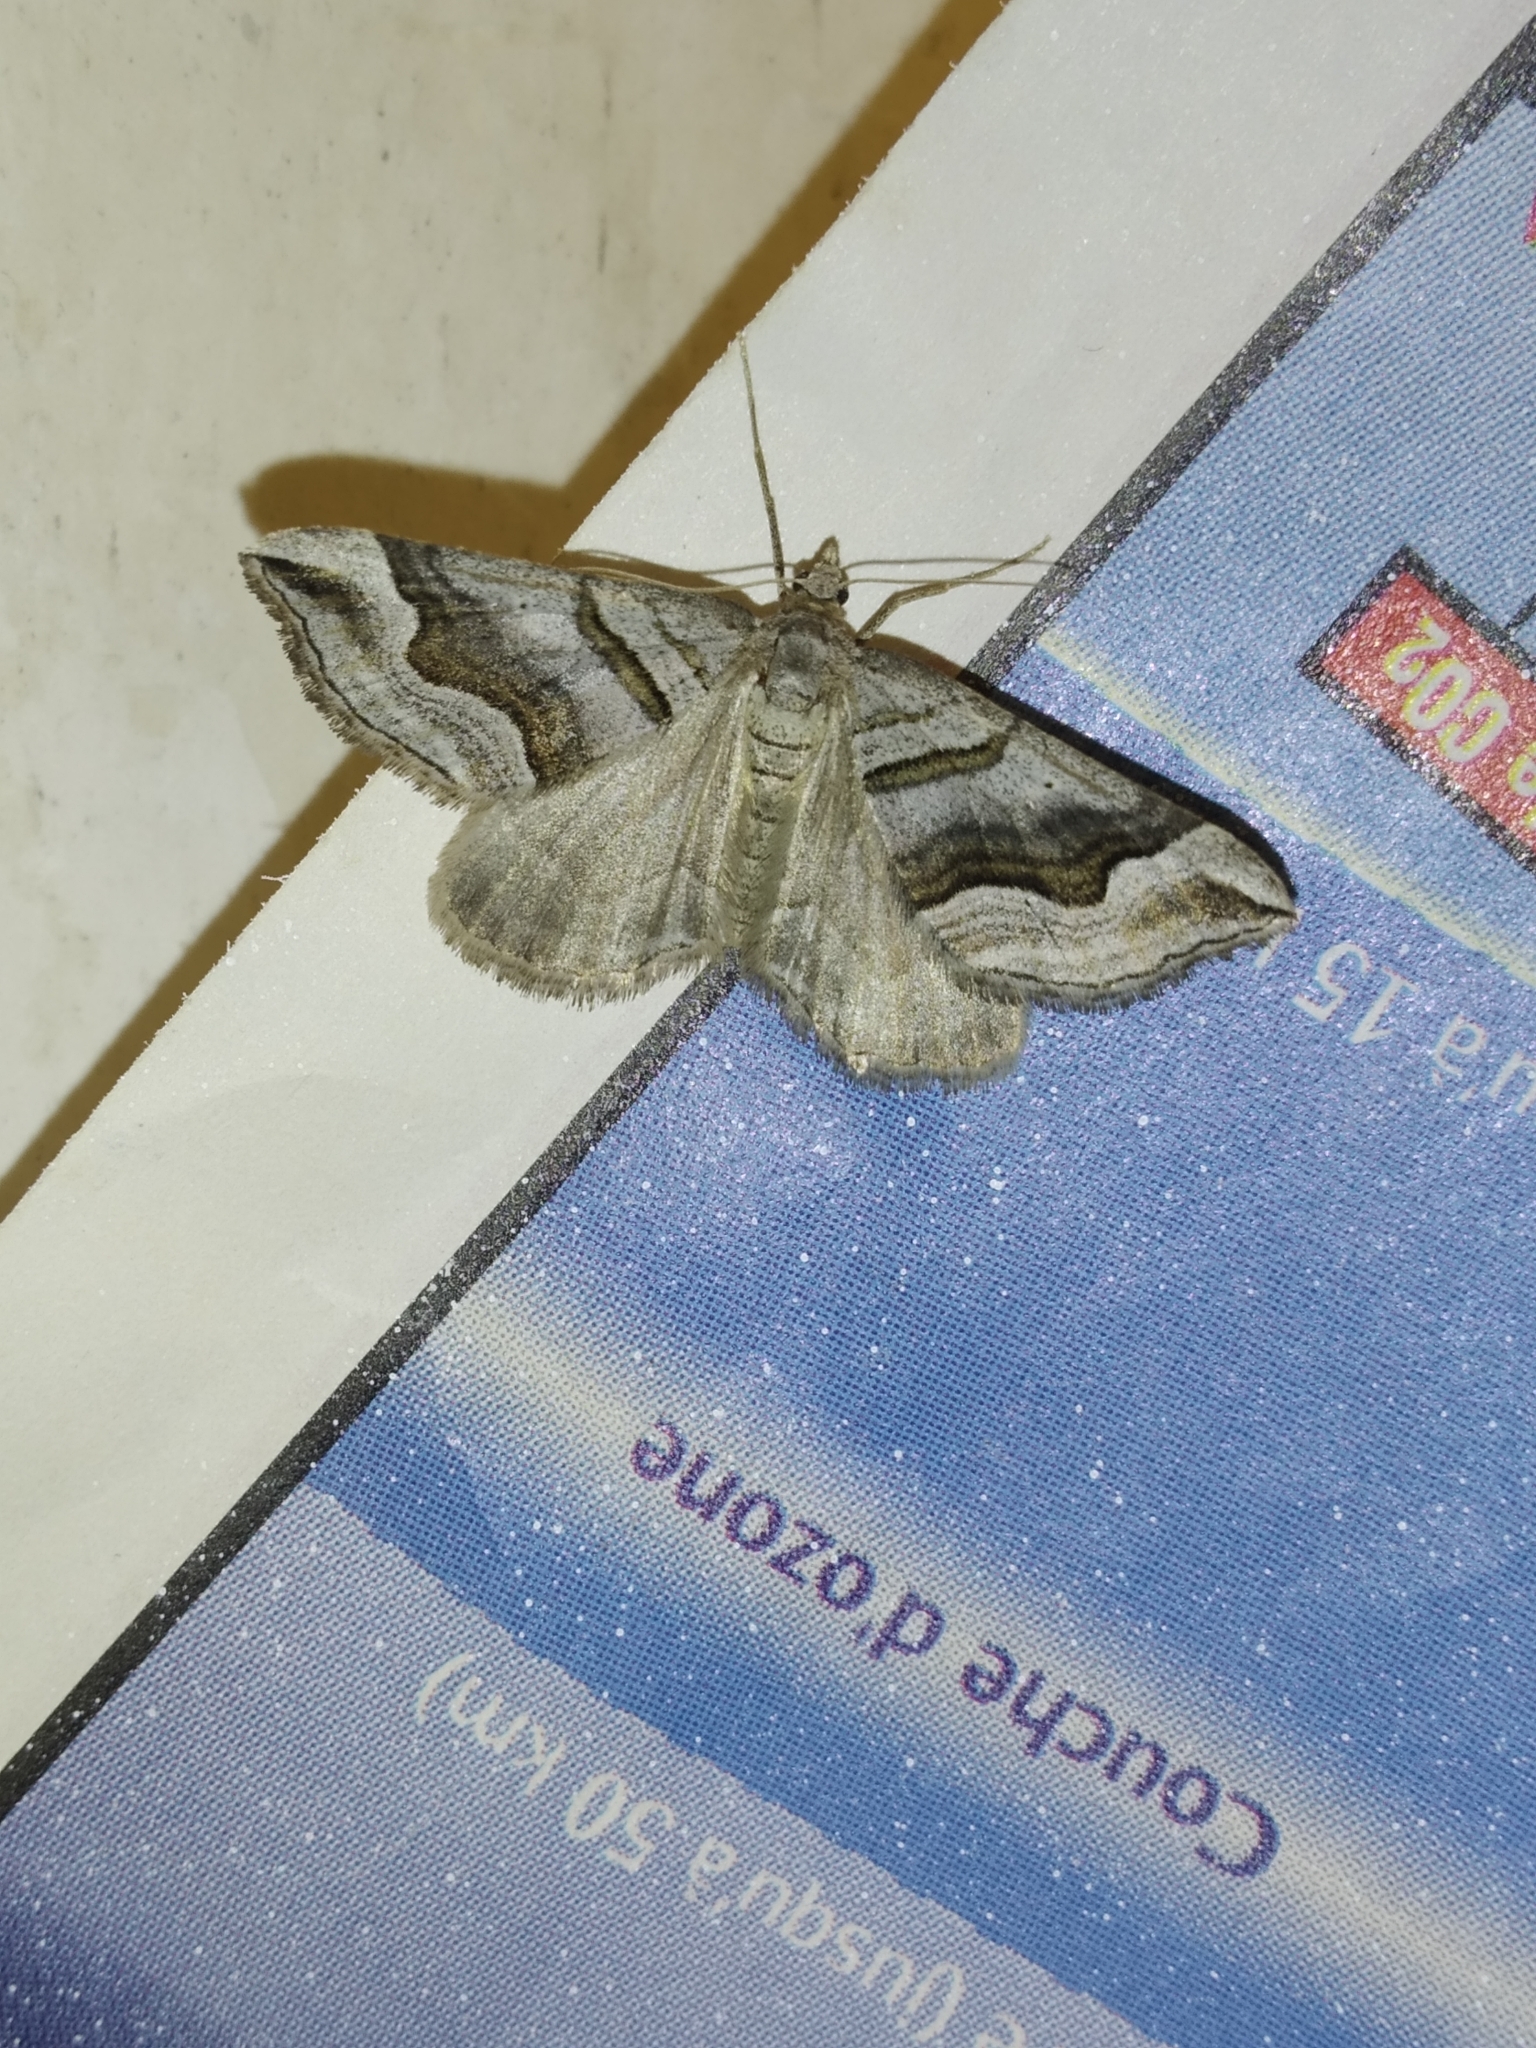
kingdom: Animalia
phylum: Arthropoda
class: Insecta
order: Lepidoptera
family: Geometridae
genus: Scotopteryx
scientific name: Scotopteryx peribolata
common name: Spanish carpet
